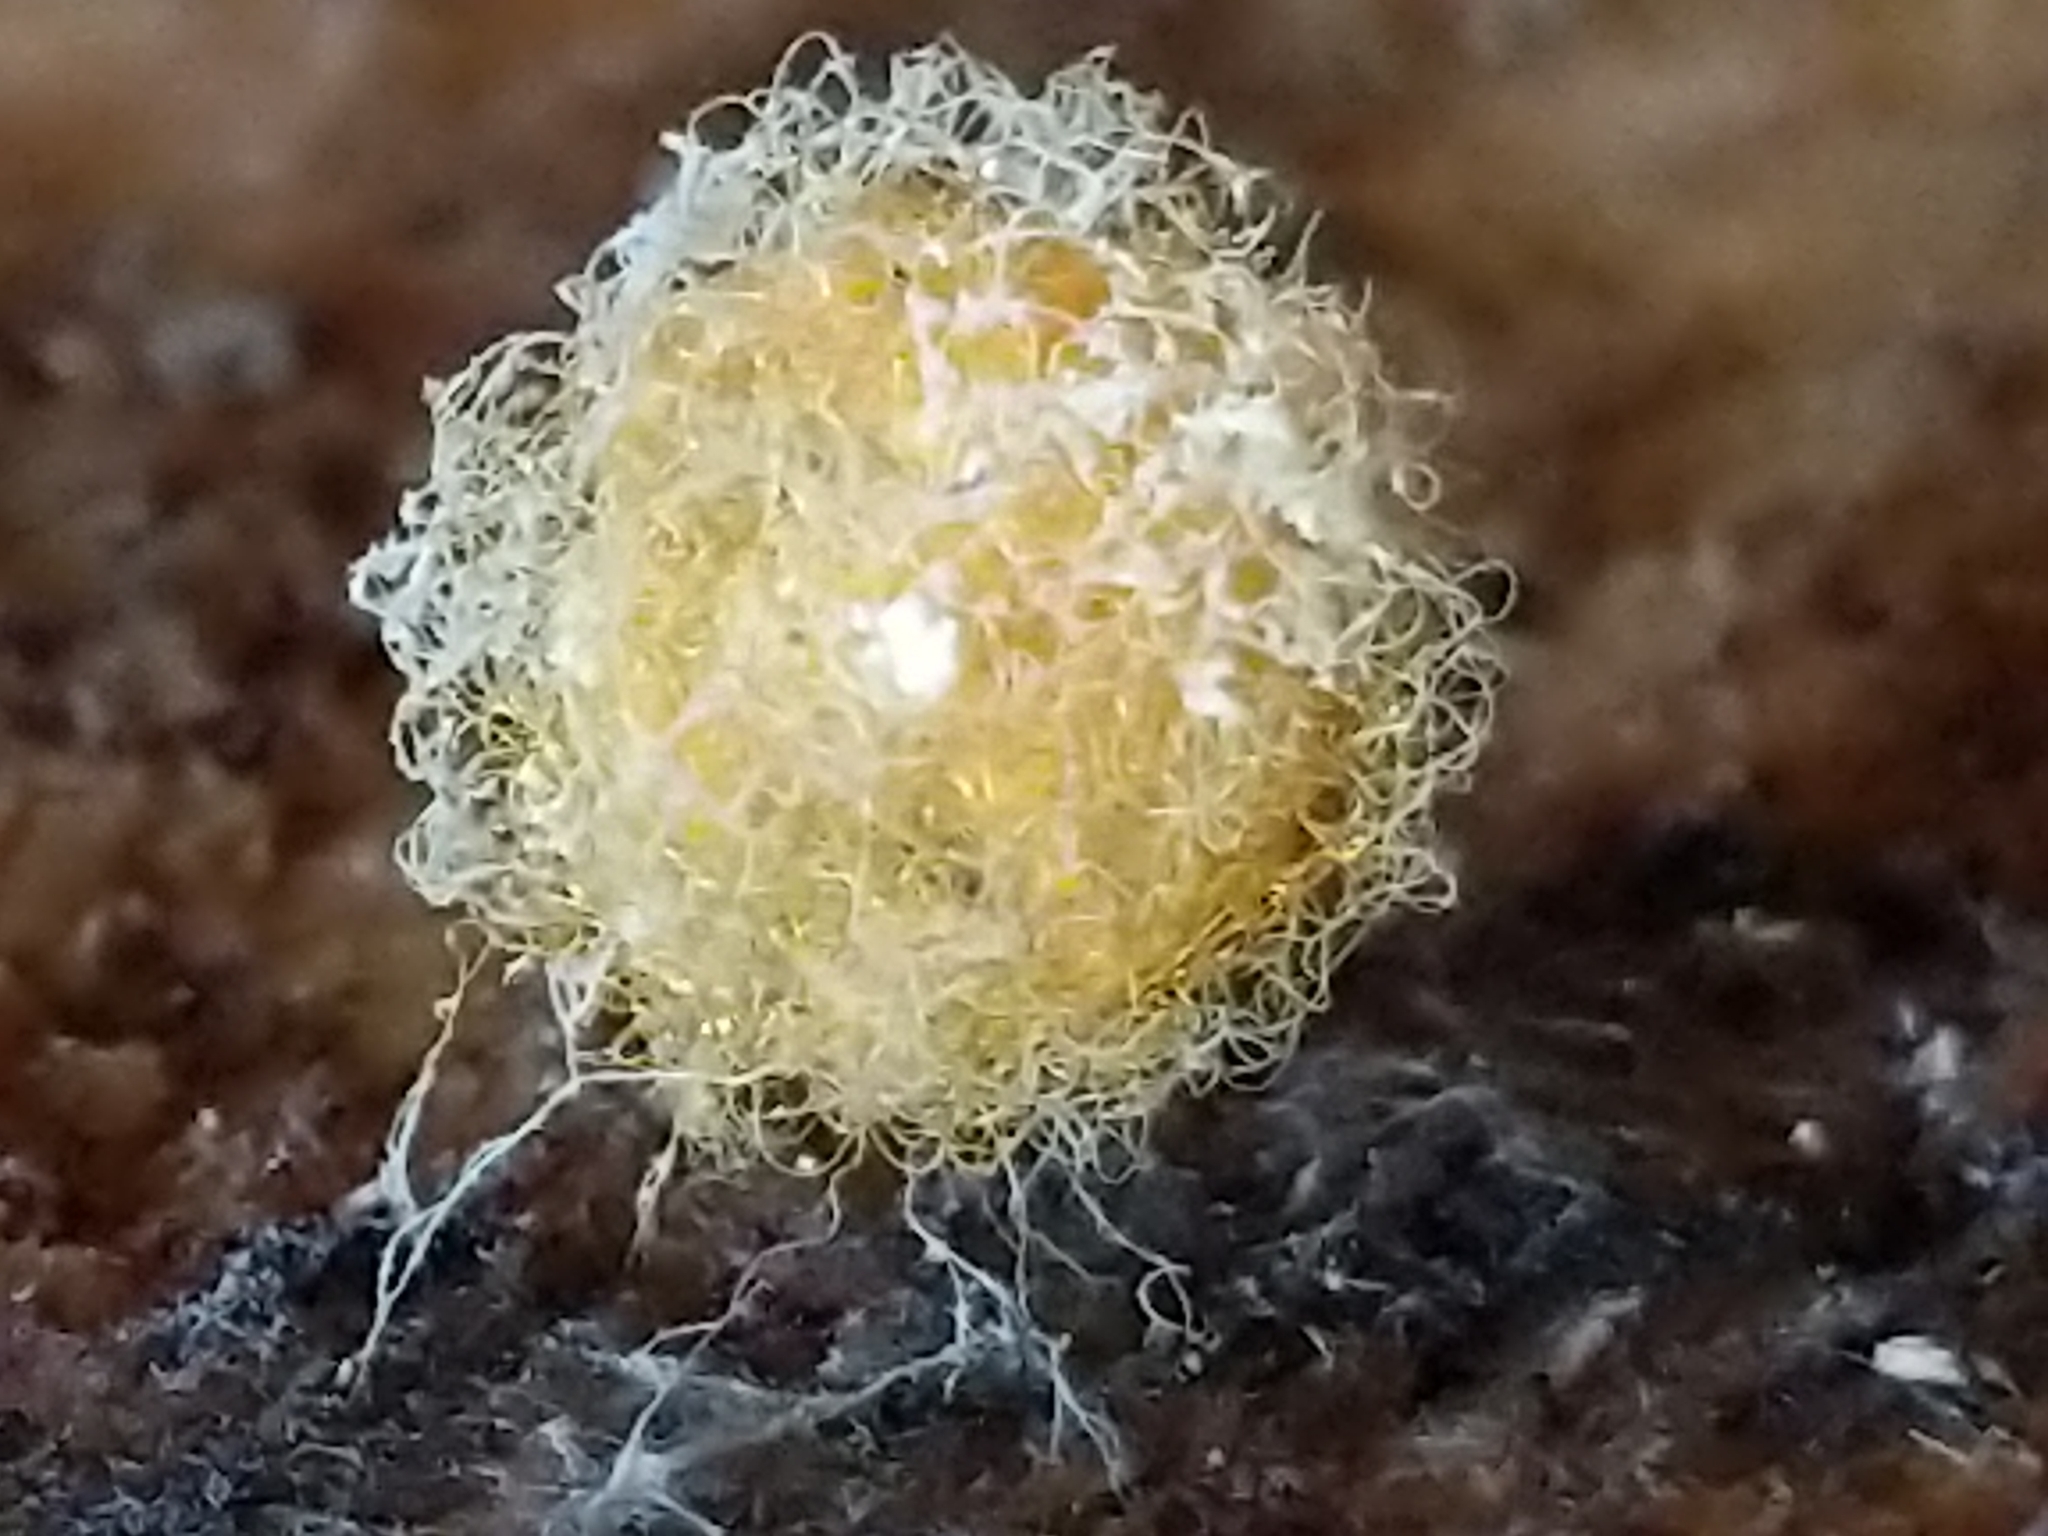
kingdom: Animalia
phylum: Arthropoda
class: Arachnida
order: Araneae
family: Mimetidae
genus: Mimetus
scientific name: Mimetus puritanus
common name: Common pirate spider
